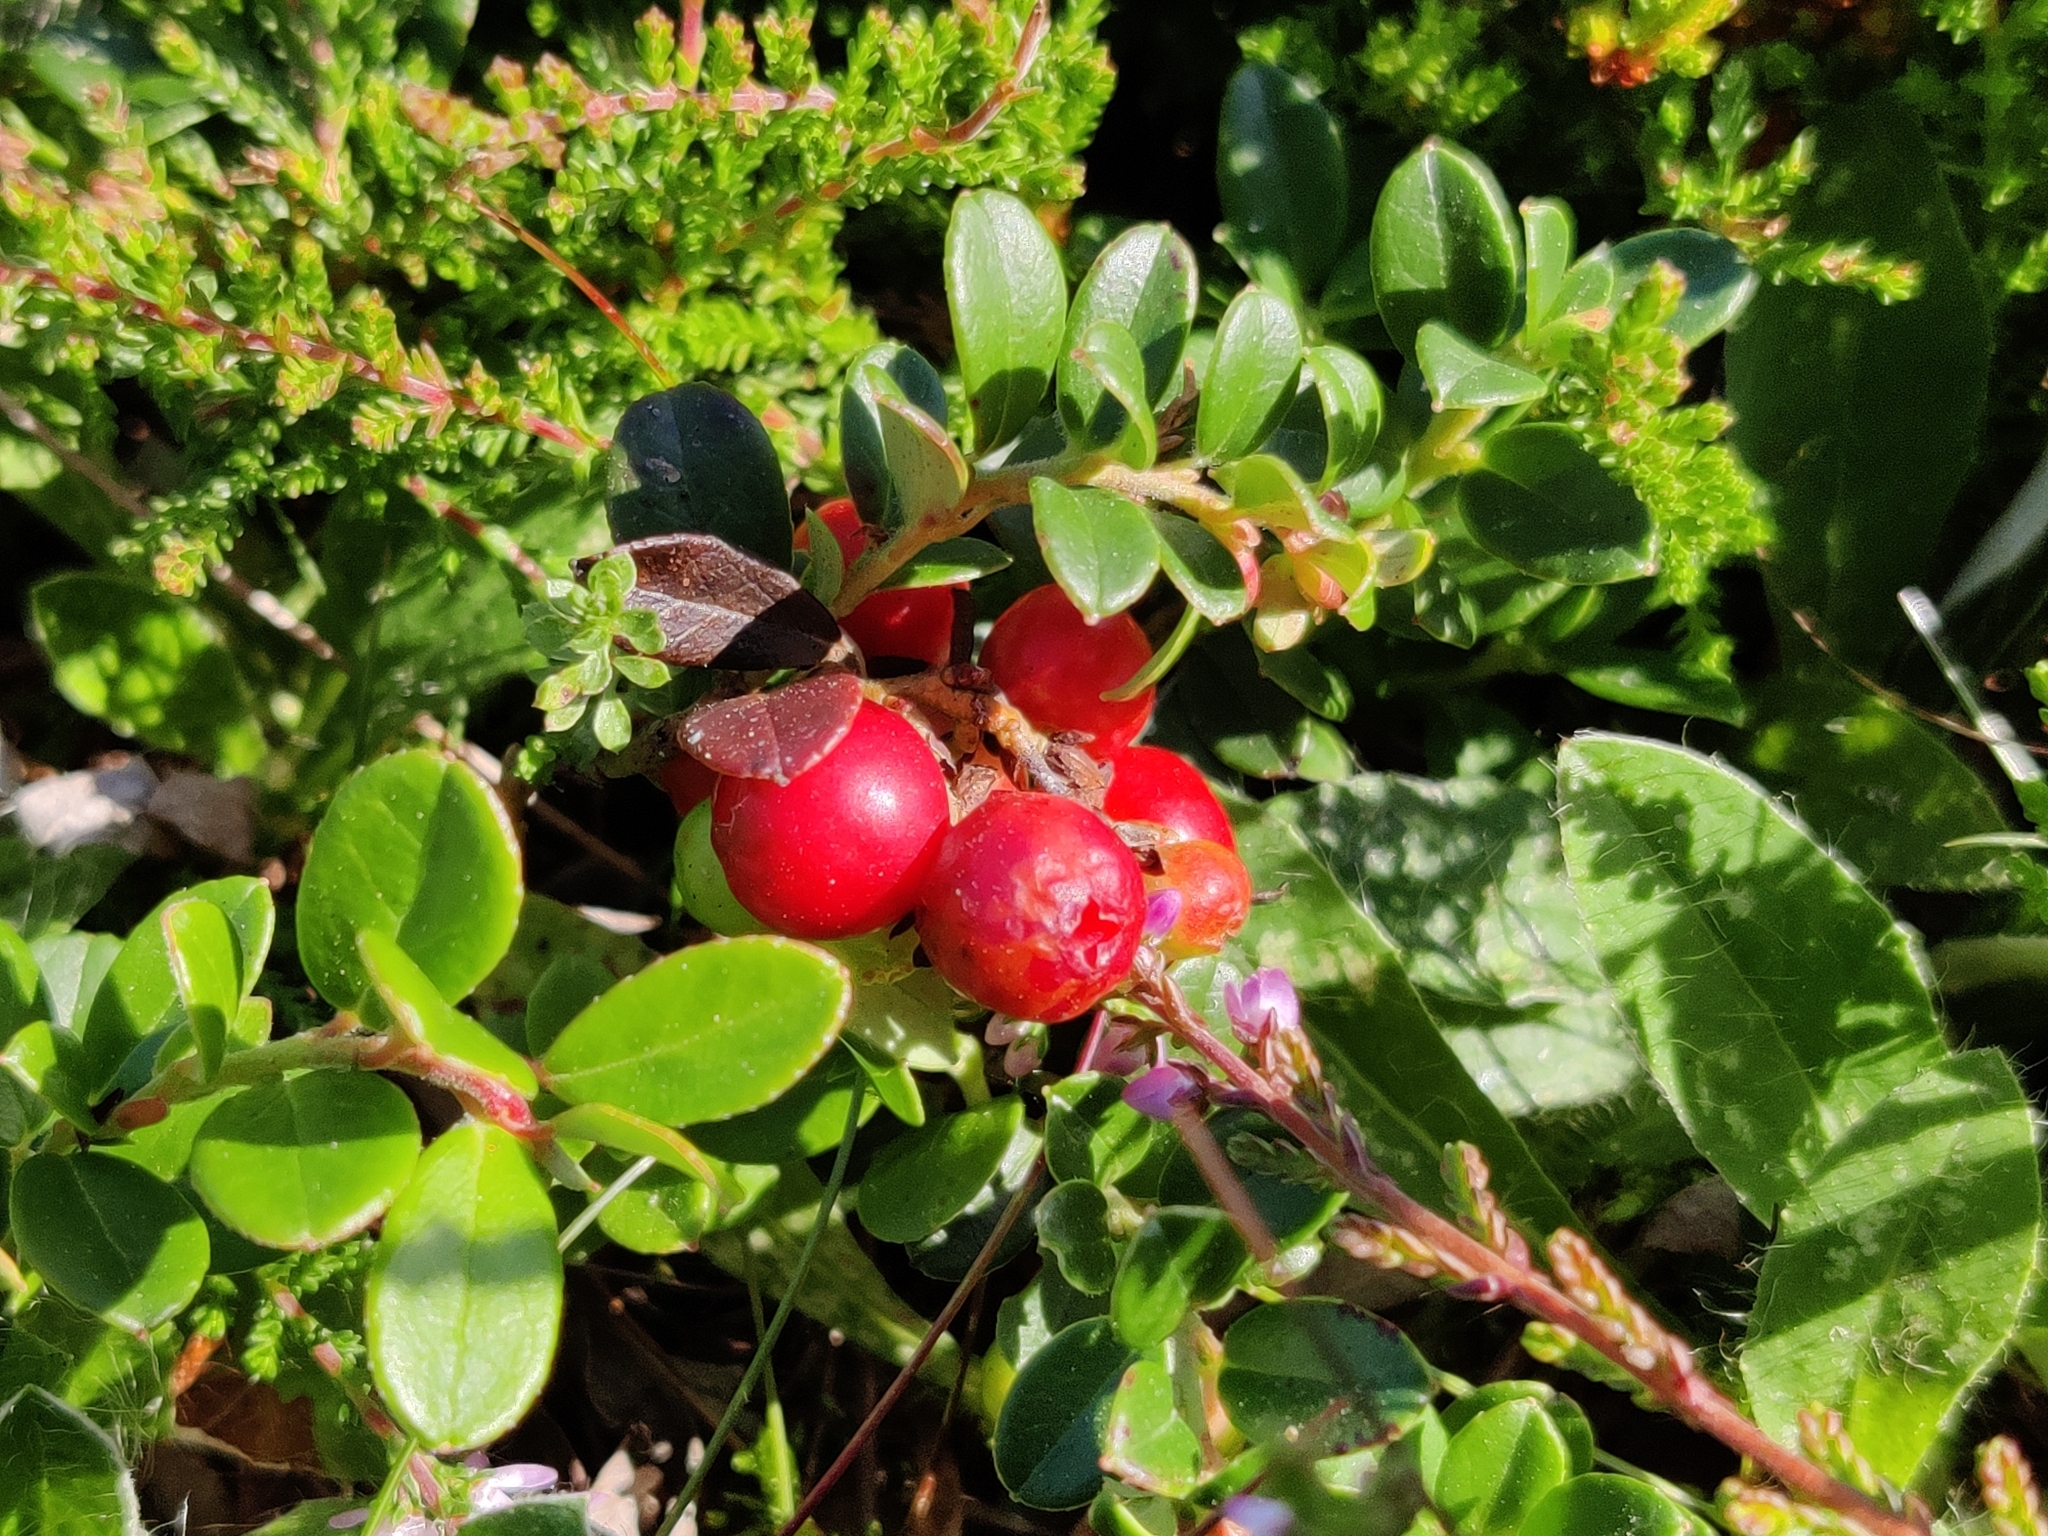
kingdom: Plantae
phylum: Tracheophyta
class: Magnoliopsida
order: Ericales
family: Ericaceae
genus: Vaccinium
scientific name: Vaccinium vitis-idaea
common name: Cowberry
